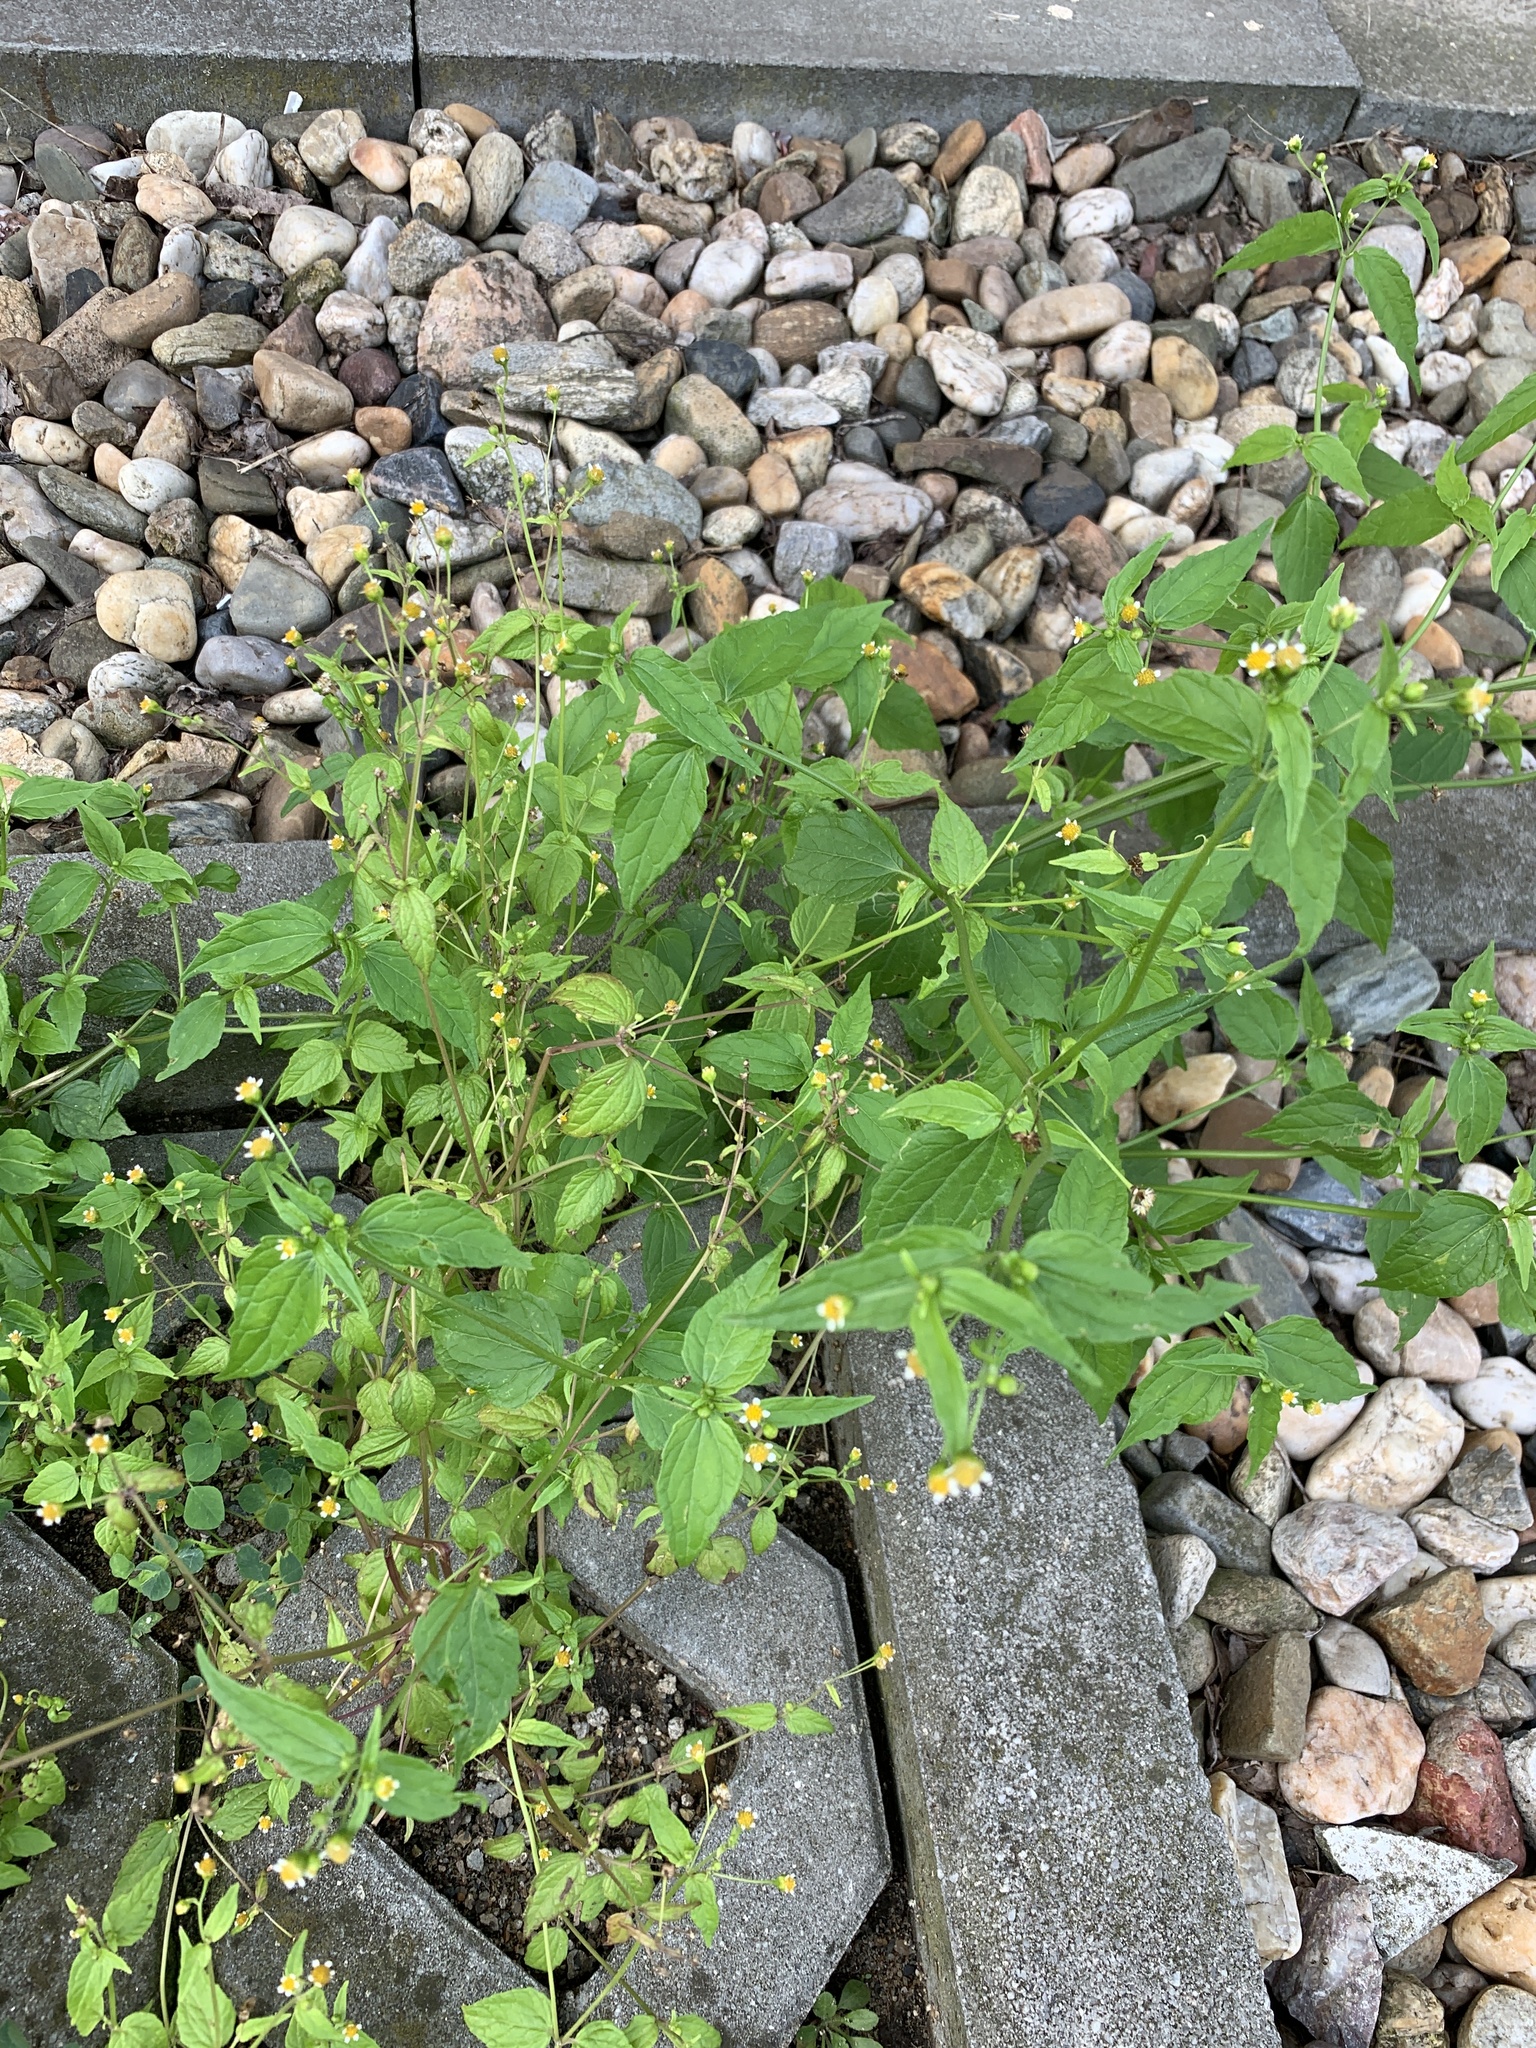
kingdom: Plantae
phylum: Tracheophyta
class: Magnoliopsida
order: Asterales
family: Asteraceae
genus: Galinsoga
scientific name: Galinsoga parviflora
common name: Gallant soldier
